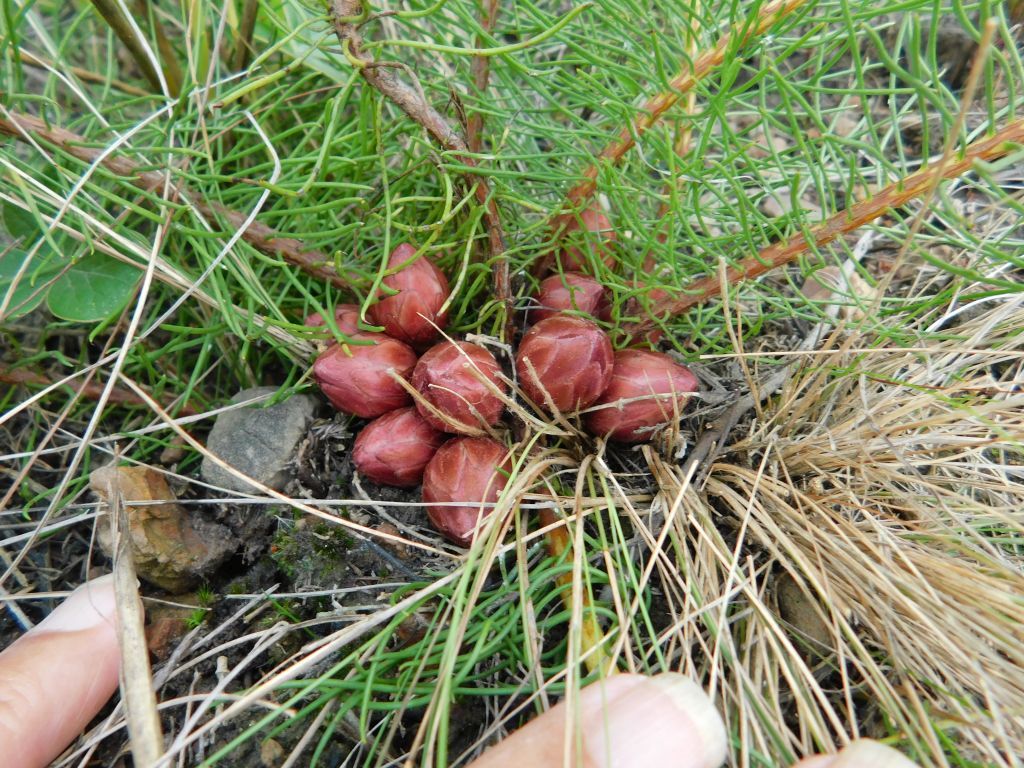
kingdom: Plantae
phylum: Tracheophyta
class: Magnoliopsida
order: Proteales
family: Proteaceae
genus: Protea
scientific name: Protea subulifolia
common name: Awl-leaf sugarbush
